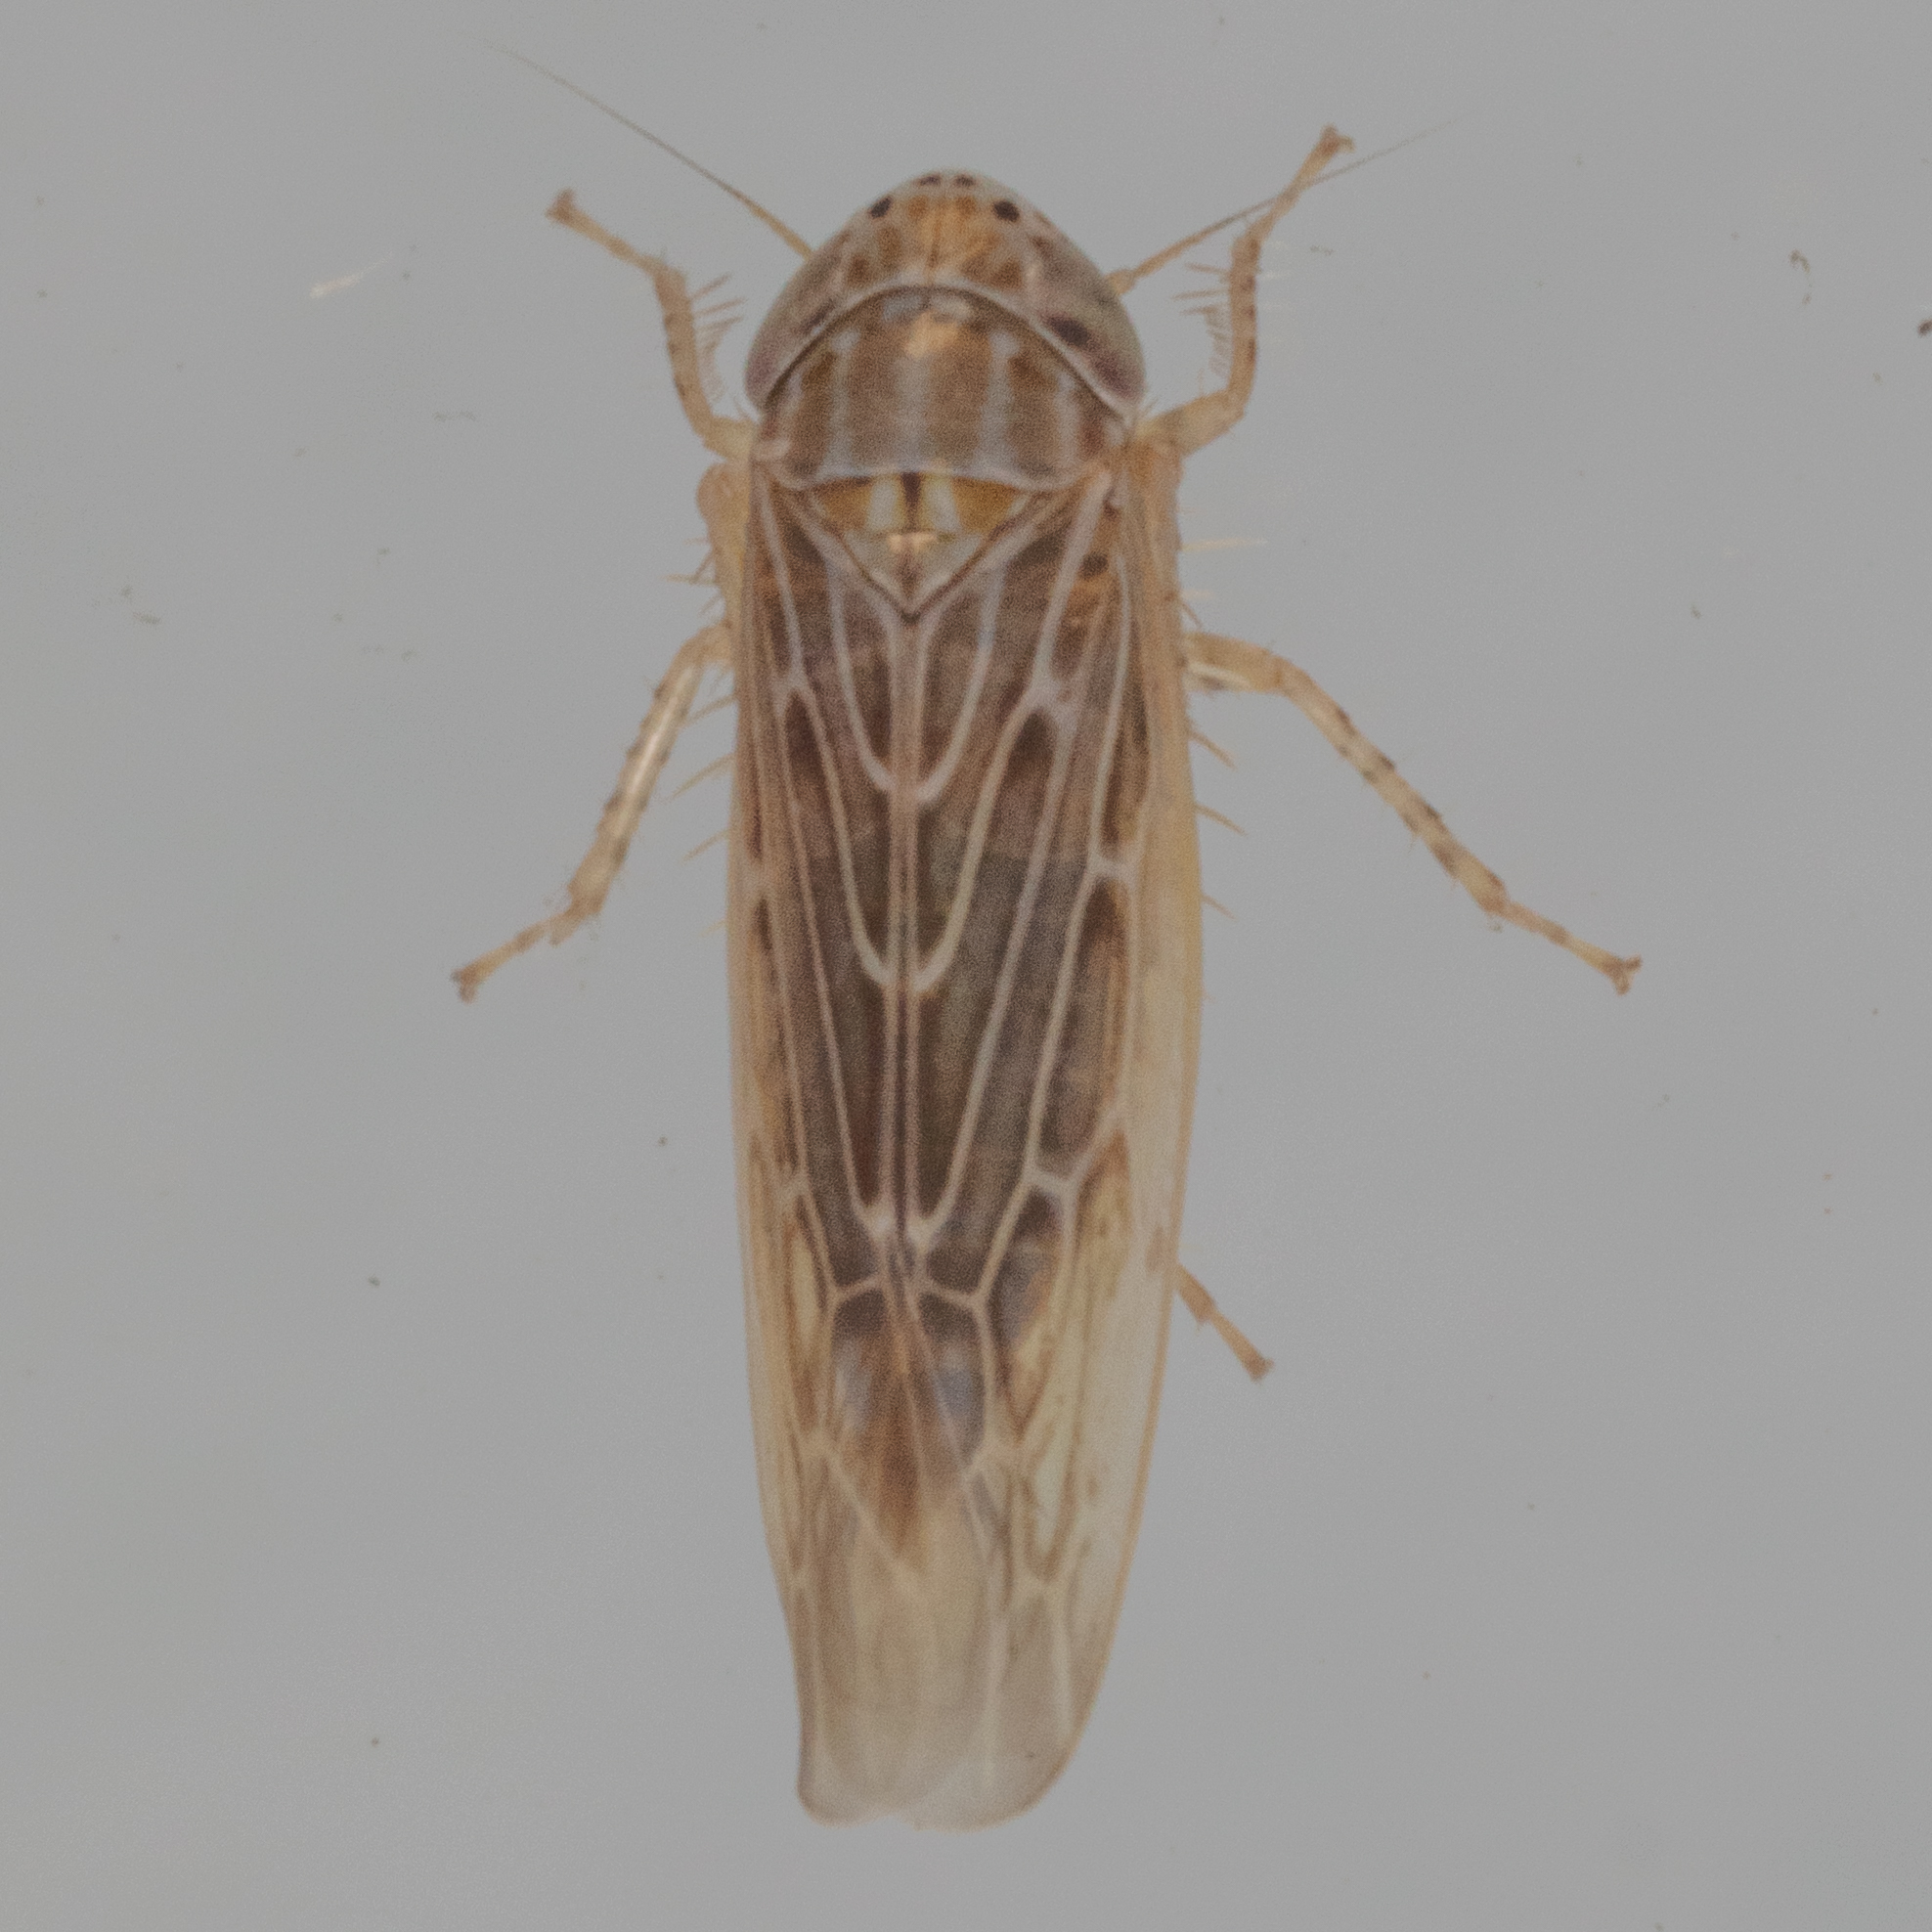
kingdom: Animalia
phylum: Arthropoda
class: Insecta
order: Hemiptera
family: Cicadellidae
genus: Graminella
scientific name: Graminella sonora
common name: Lesser lawn leafhopper
